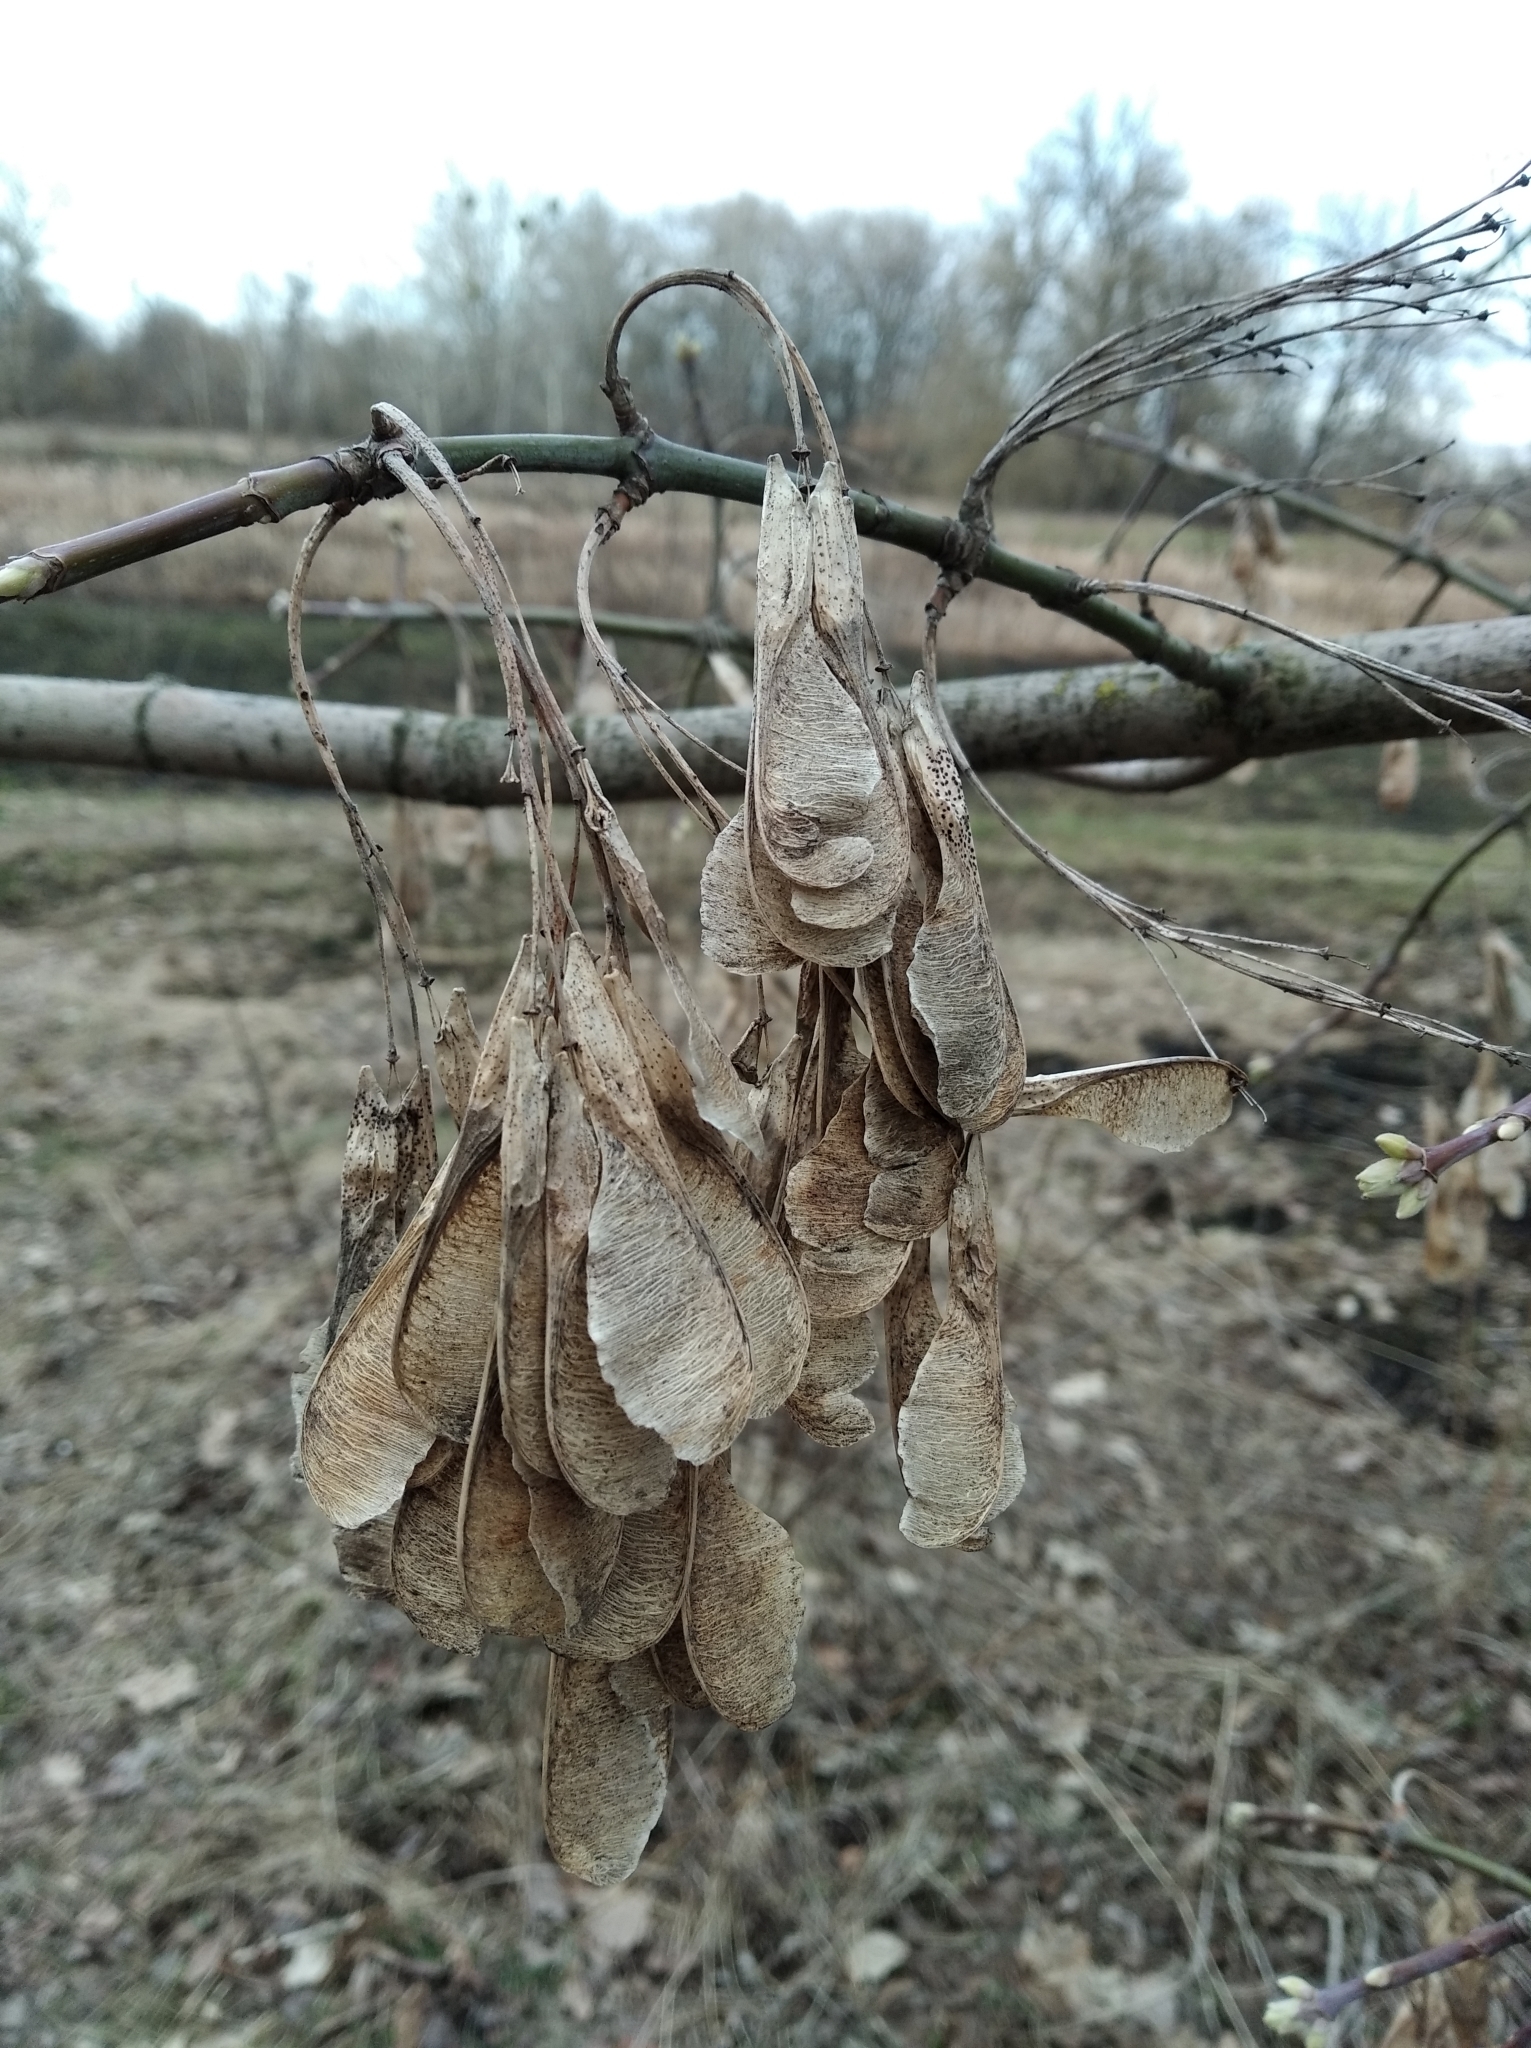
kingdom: Plantae
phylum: Tracheophyta
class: Magnoliopsida
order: Sapindales
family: Sapindaceae
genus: Acer
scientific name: Acer negundo
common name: Ashleaf maple
